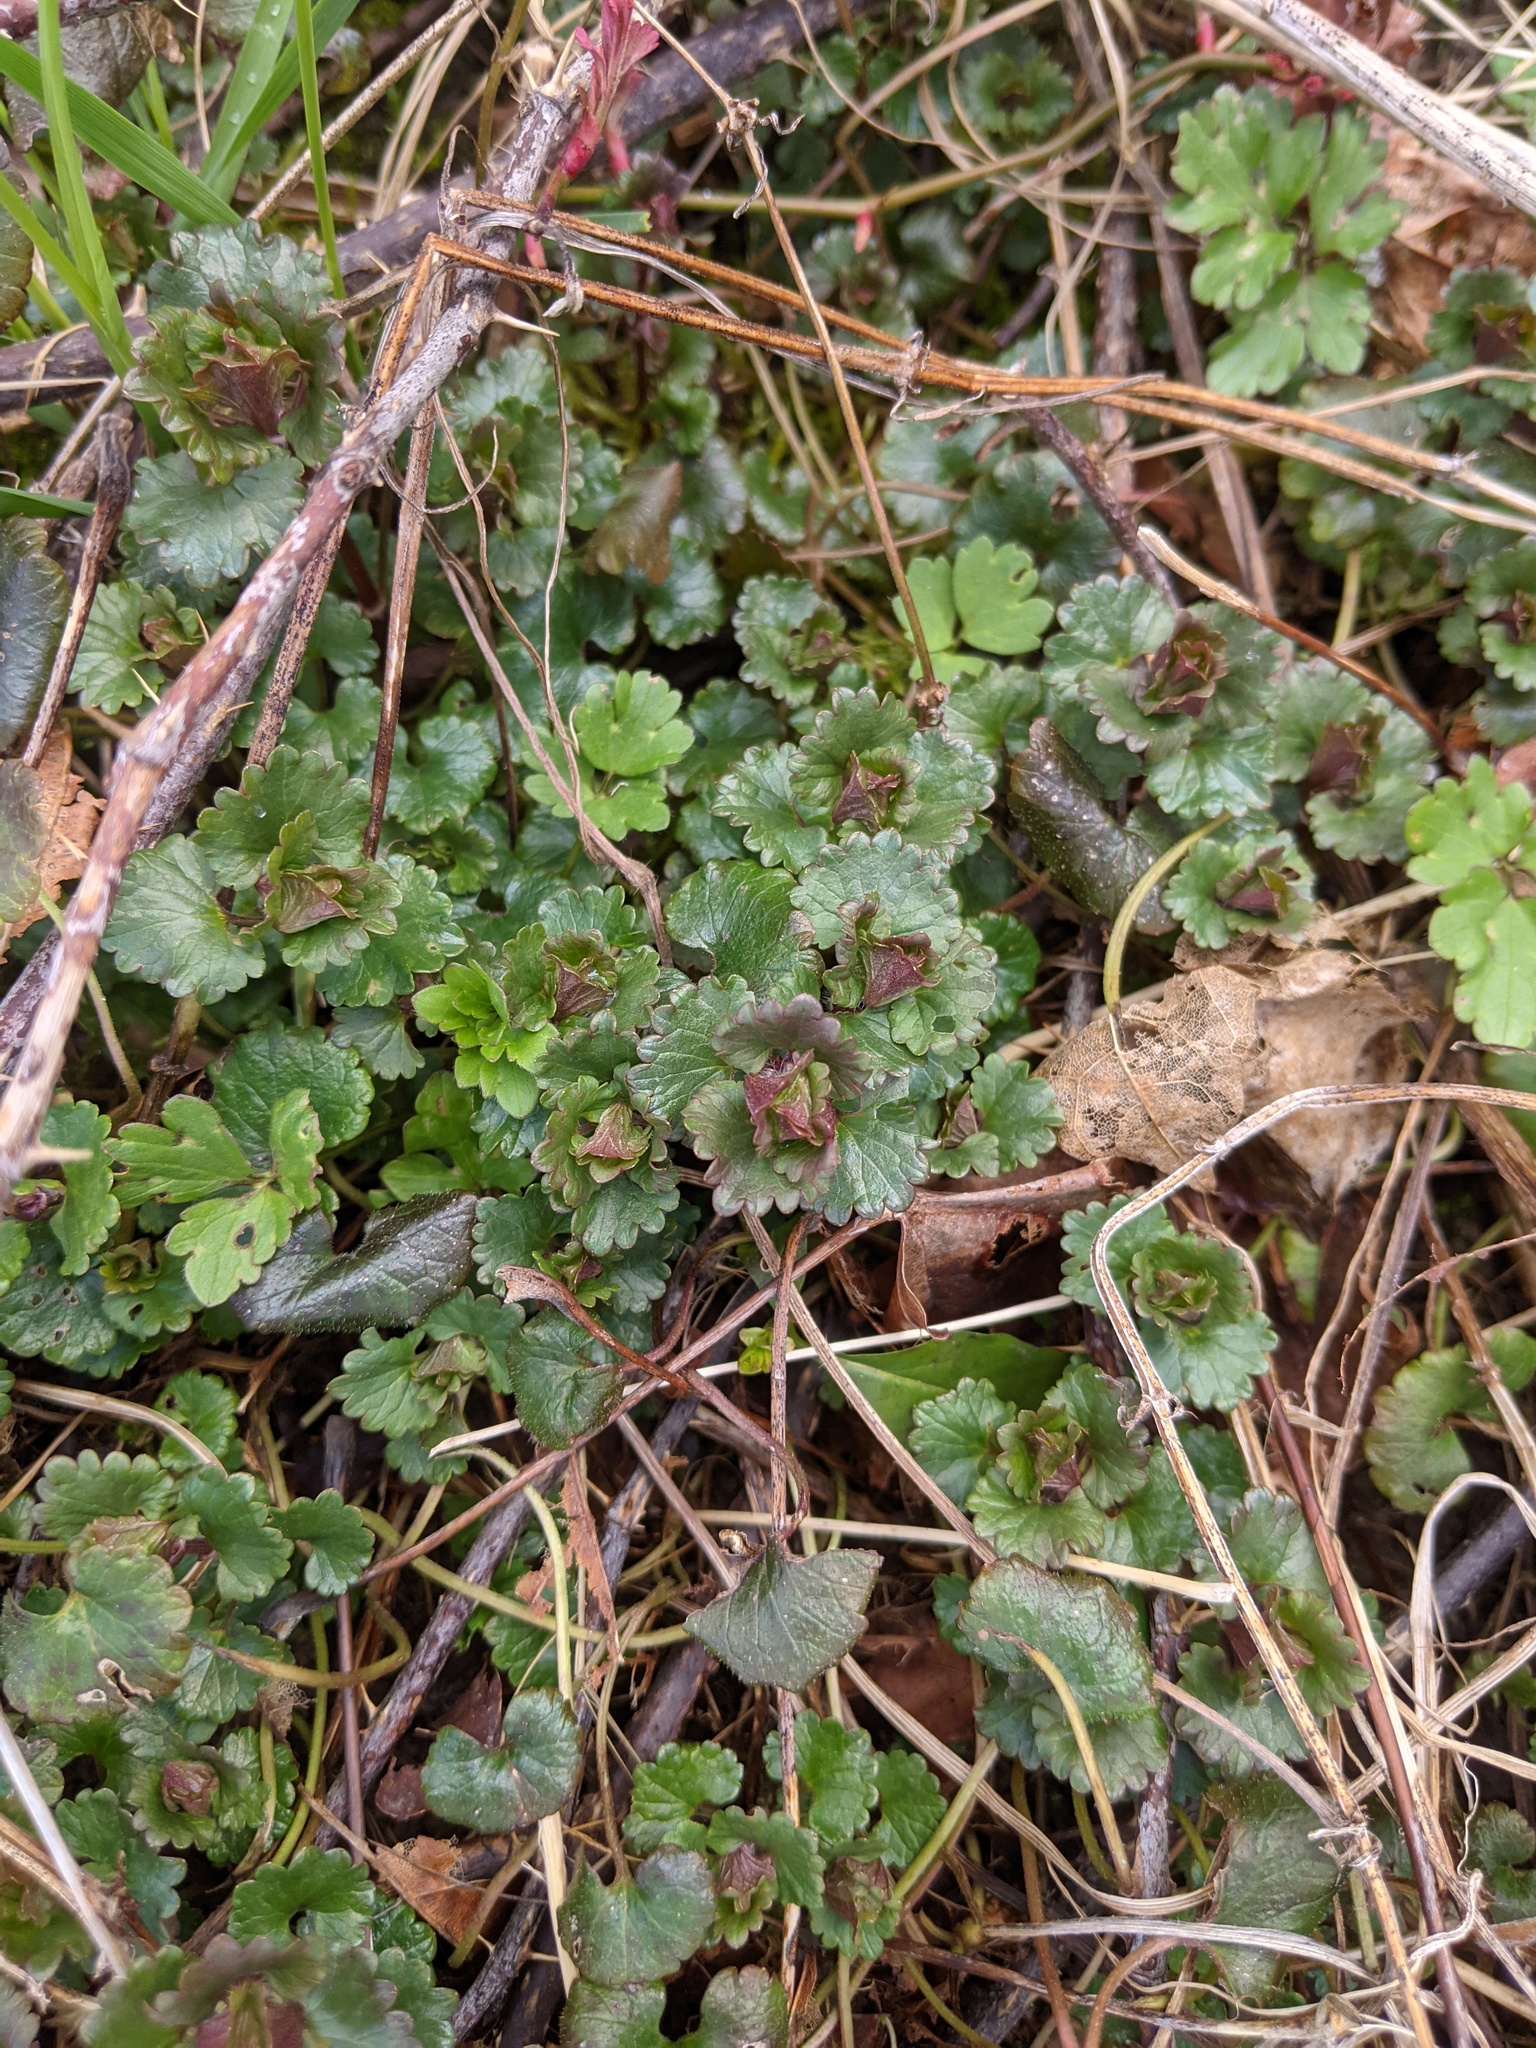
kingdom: Plantae
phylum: Tracheophyta
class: Magnoliopsida
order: Lamiales
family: Lamiaceae
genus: Glechoma
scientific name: Glechoma hederacea
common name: Ground ivy
